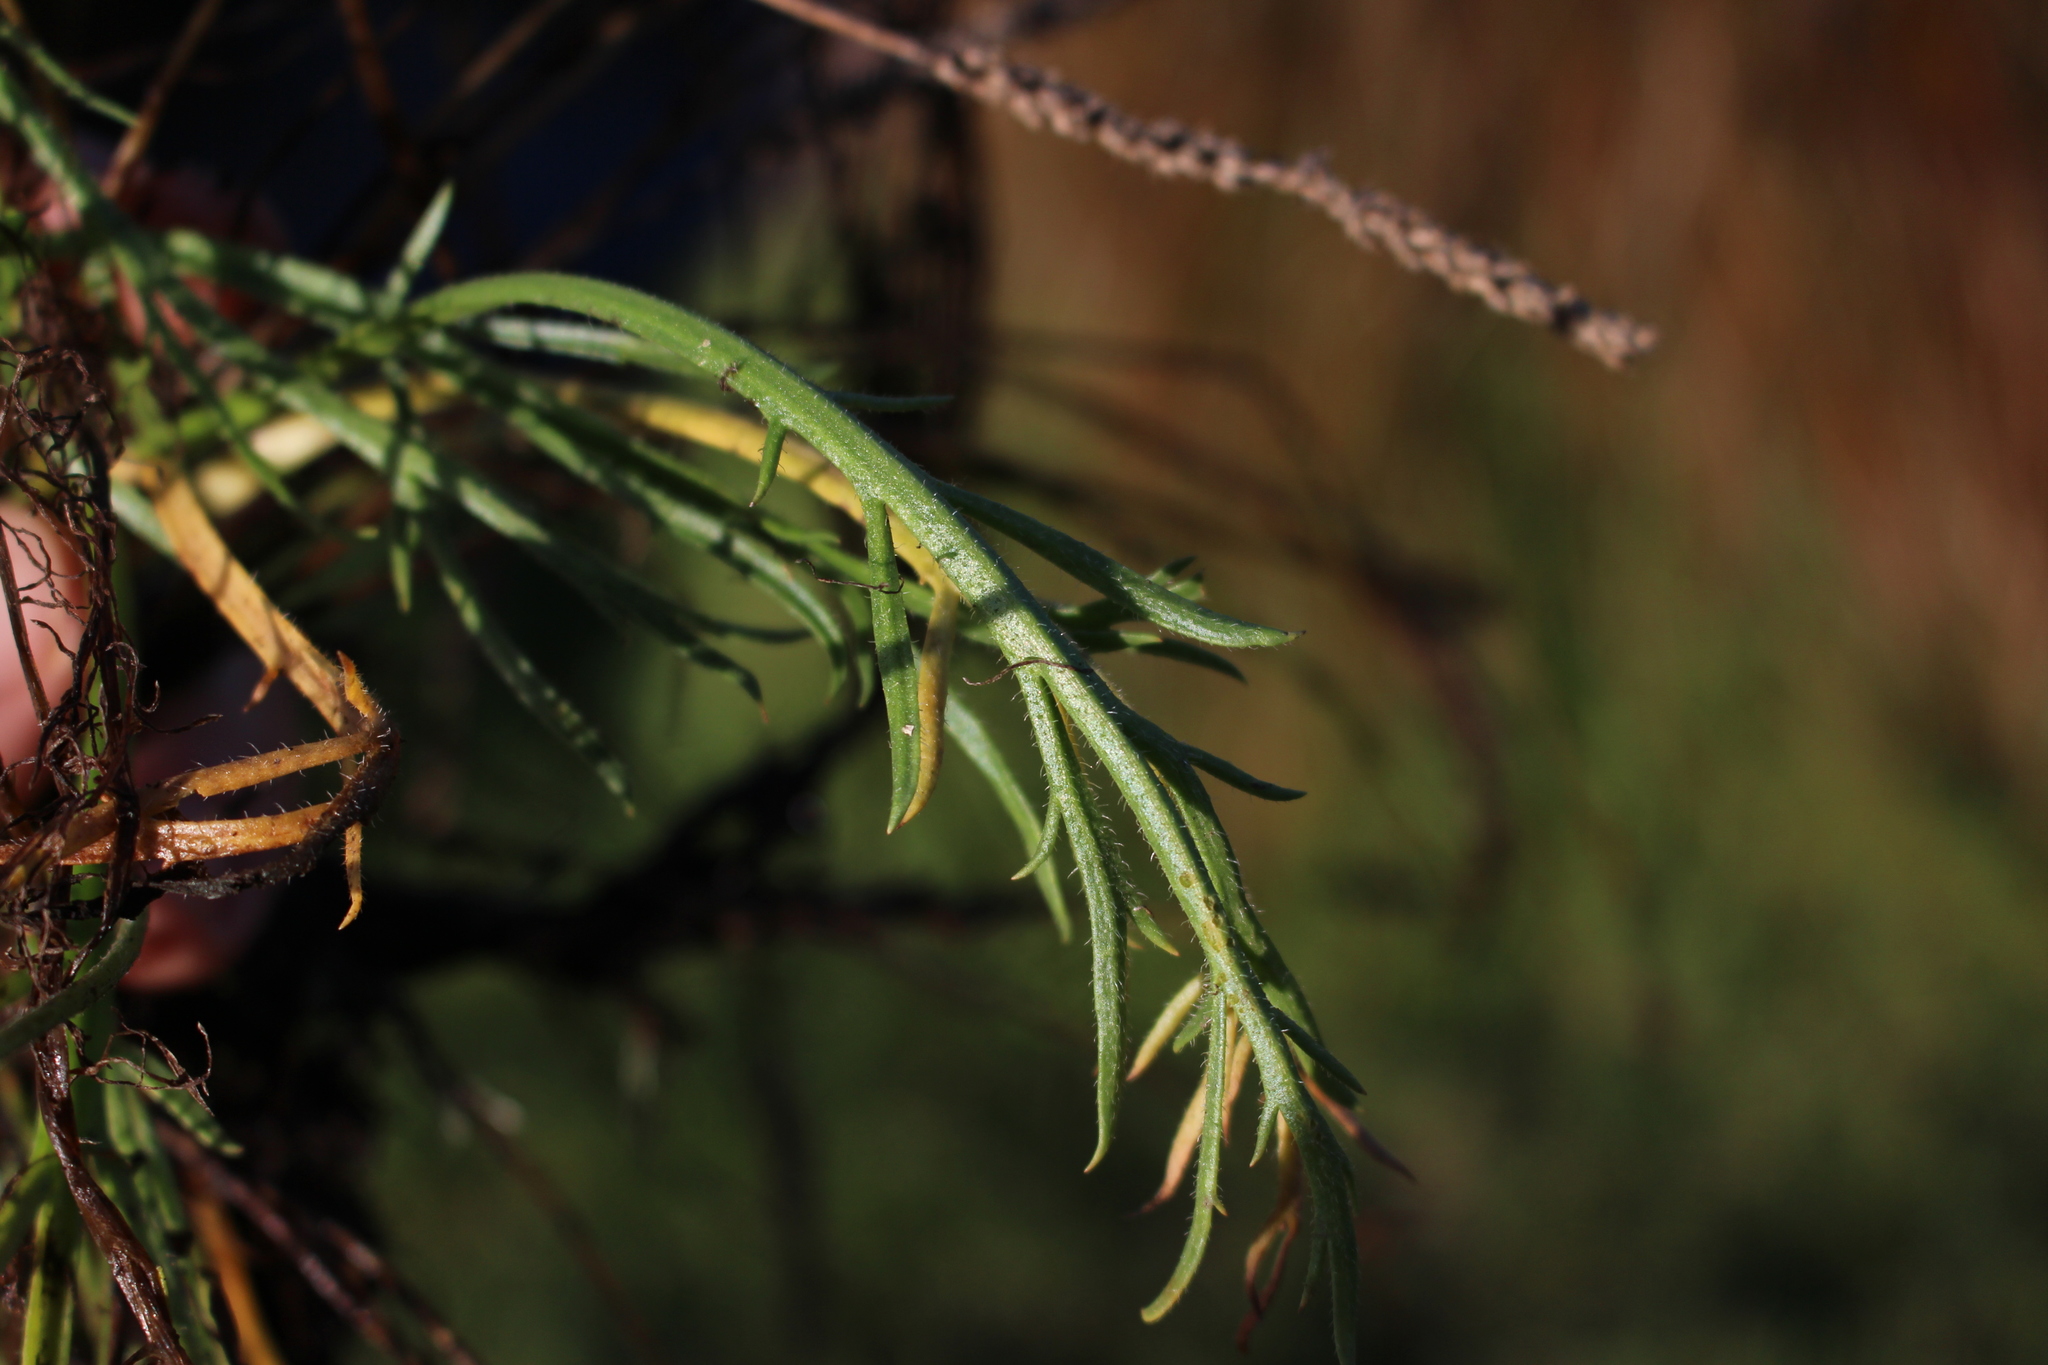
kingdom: Plantae
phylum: Tracheophyta
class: Magnoliopsida
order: Lamiales
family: Plantaginaceae
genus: Plantago
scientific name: Plantago coronopus
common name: Buck's-horn plantain
